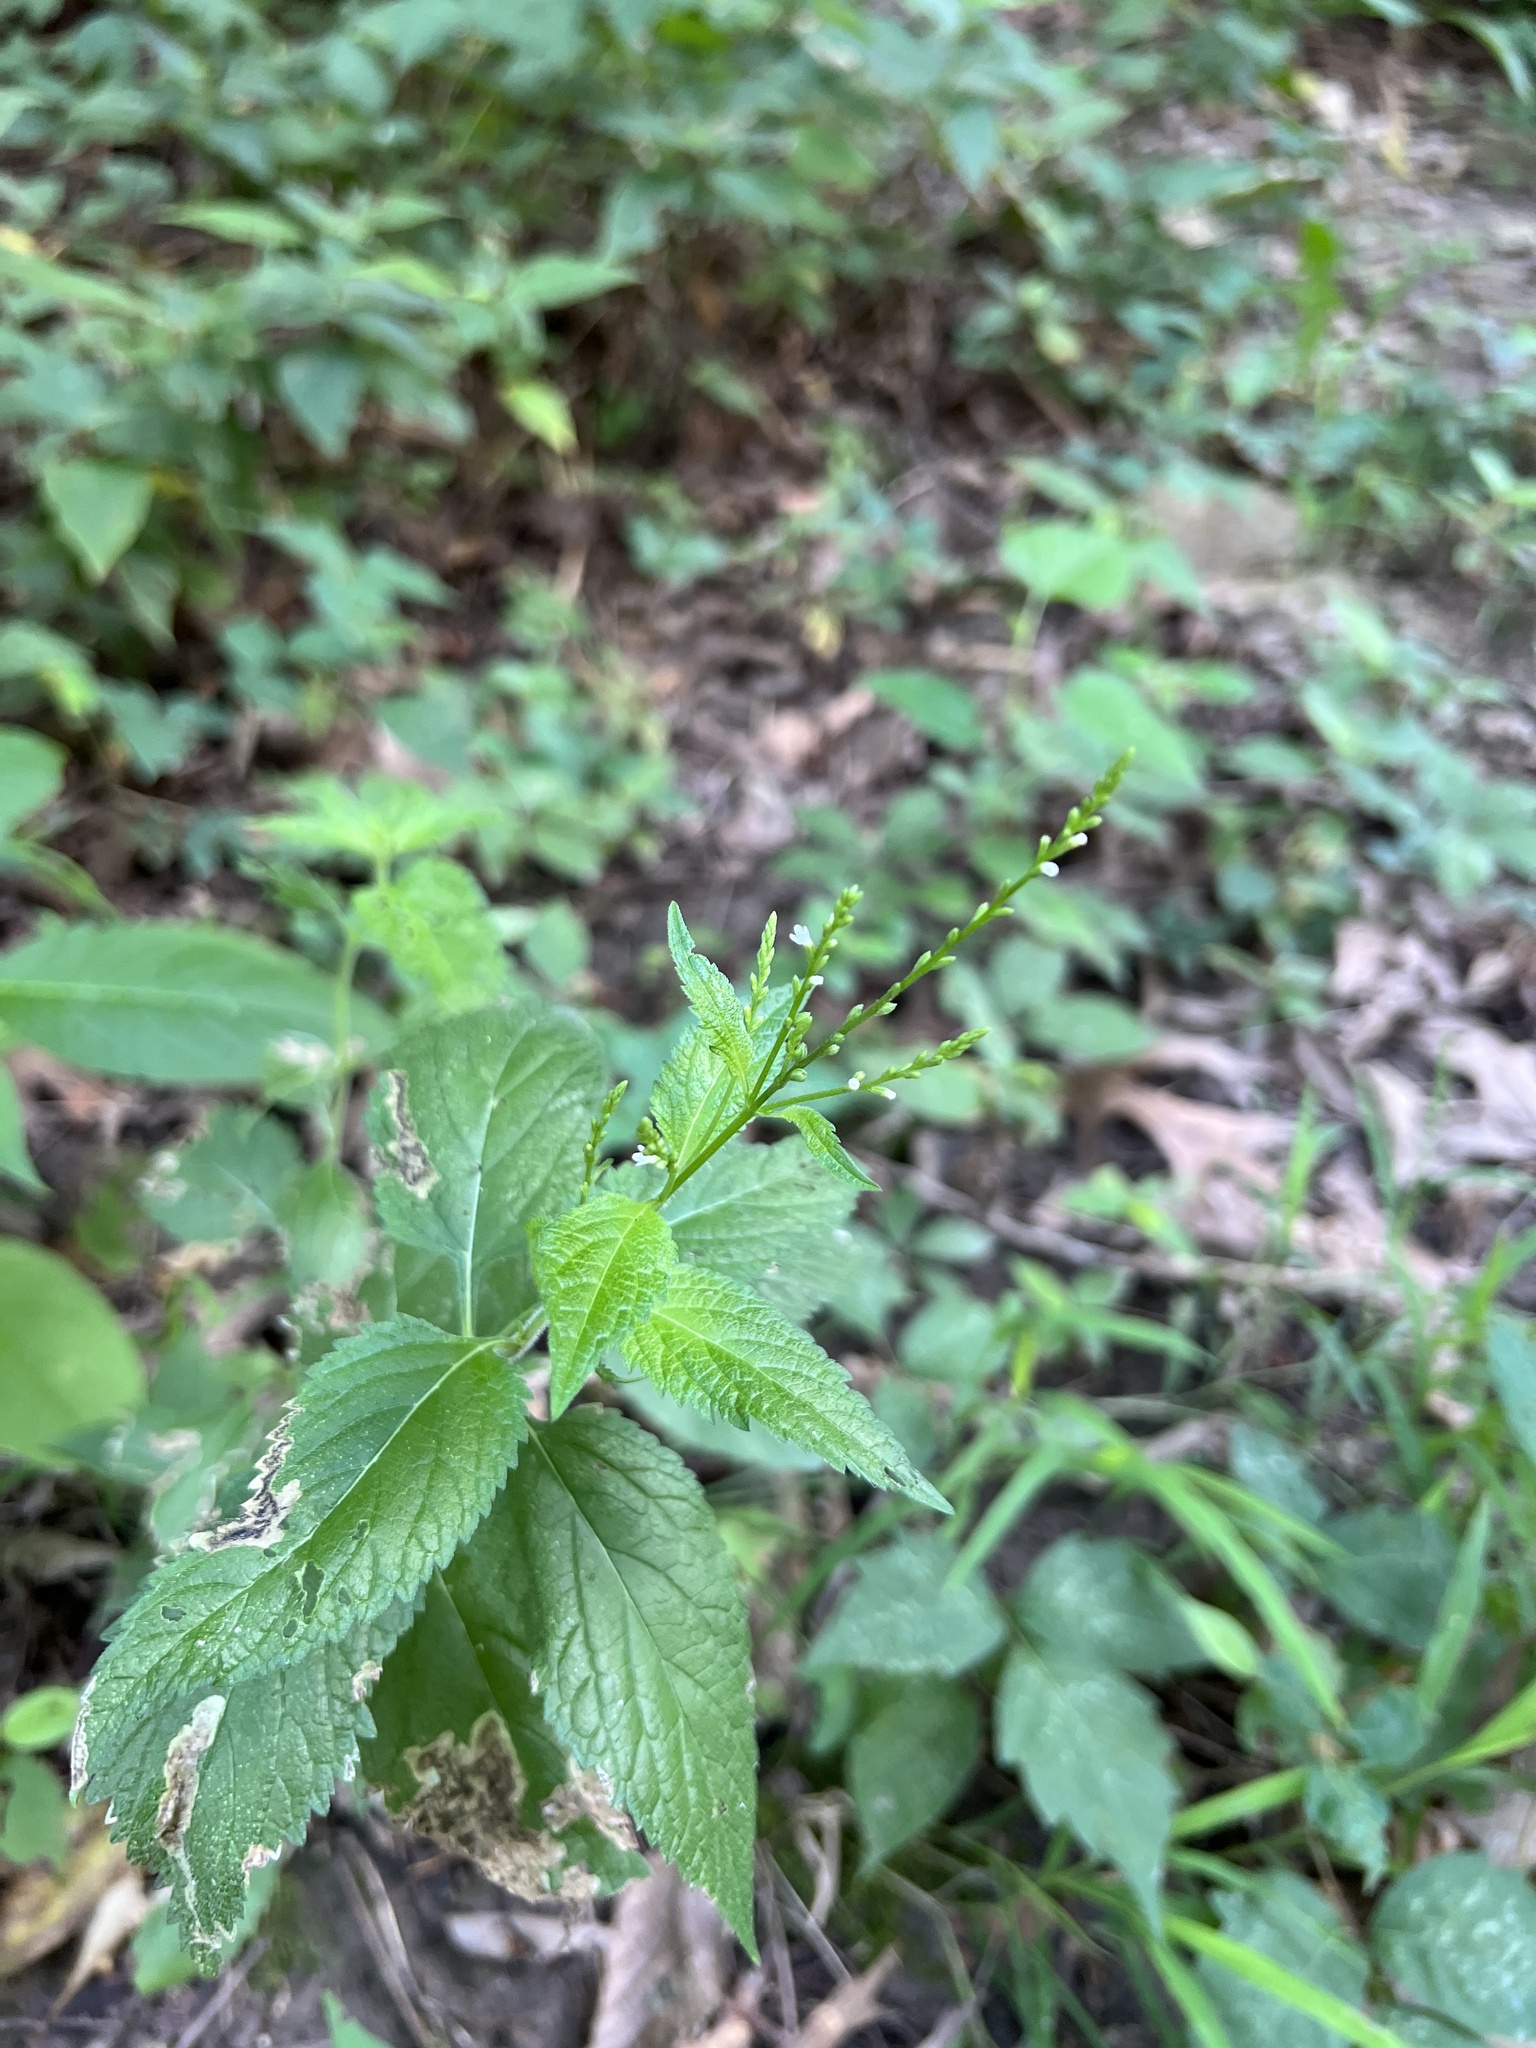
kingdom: Plantae
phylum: Tracheophyta
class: Magnoliopsida
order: Lamiales
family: Verbenaceae
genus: Verbena
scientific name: Verbena urticifolia
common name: Nettle-leaved vervain
